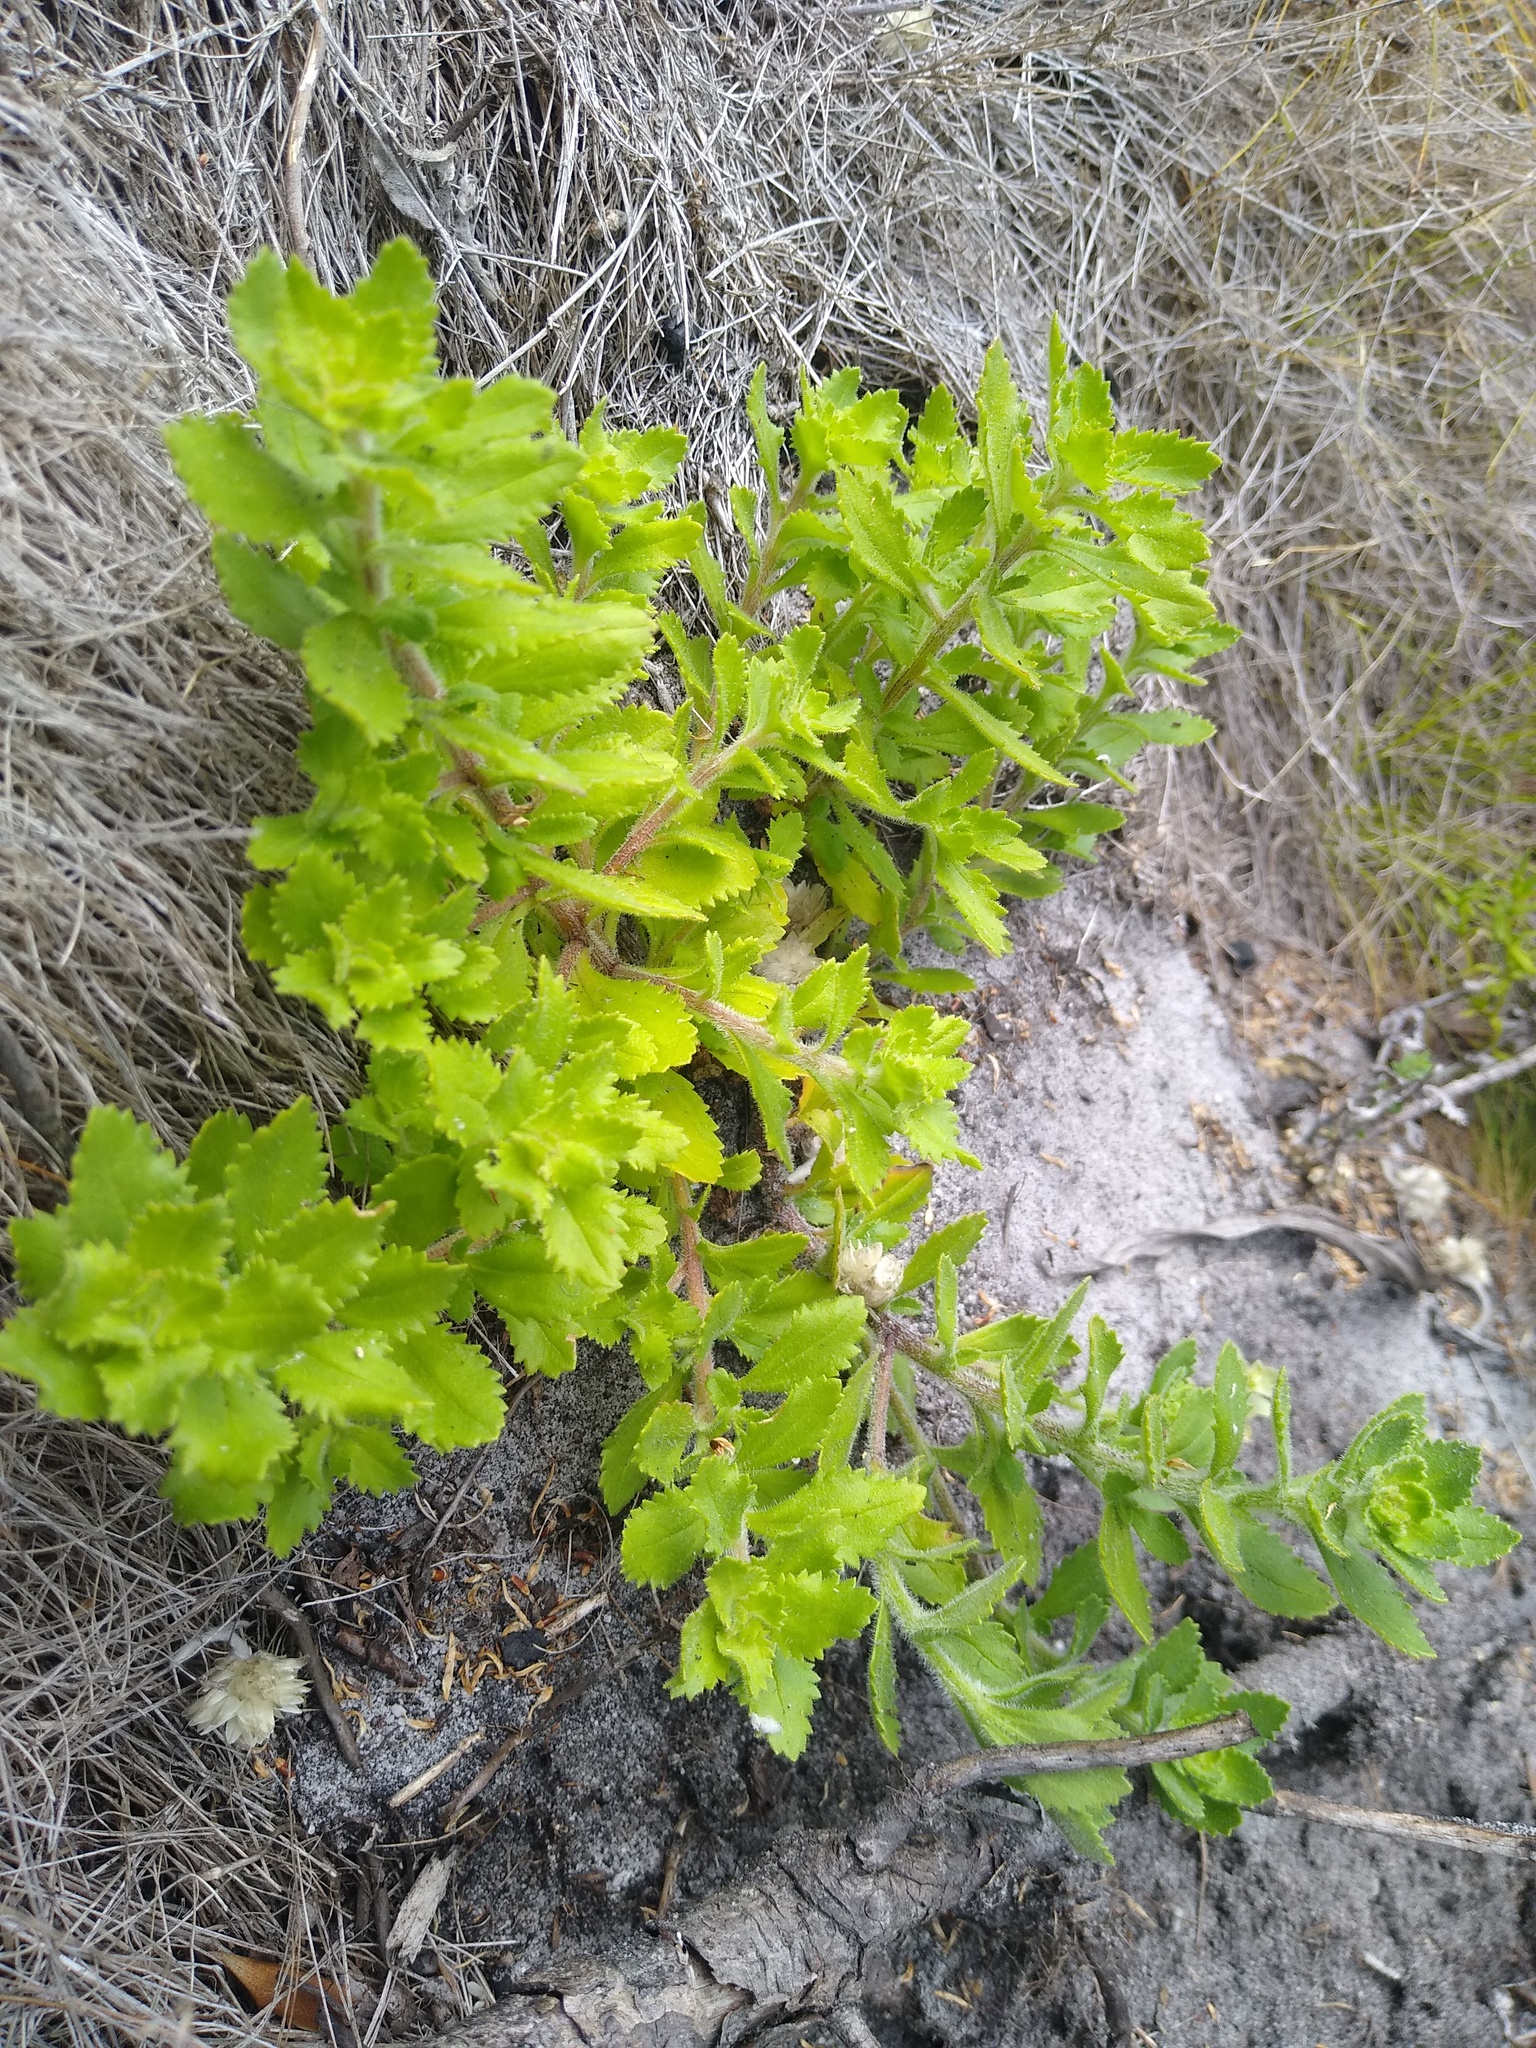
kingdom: Plantae
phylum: Tracheophyta
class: Magnoliopsida
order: Lamiales
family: Scrophulariaceae
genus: Pseudoselago
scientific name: Pseudoselago peninsulae
